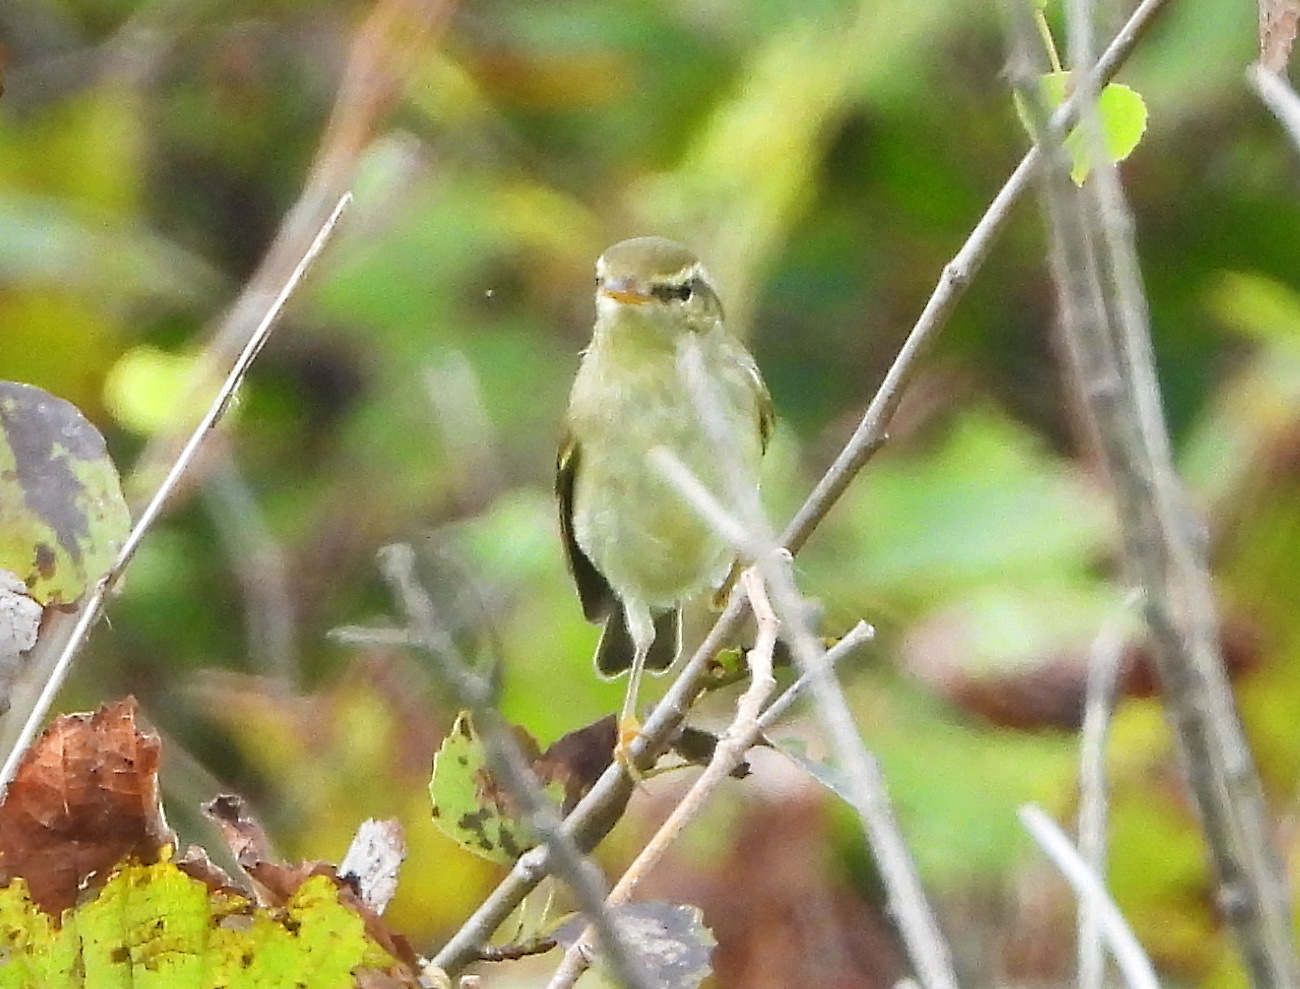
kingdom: Animalia
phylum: Chordata
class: Aves
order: Passeriformes
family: Phylloscopidae
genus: Phylloscopus
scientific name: Phylloscopus borealis
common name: Arctic warbler
